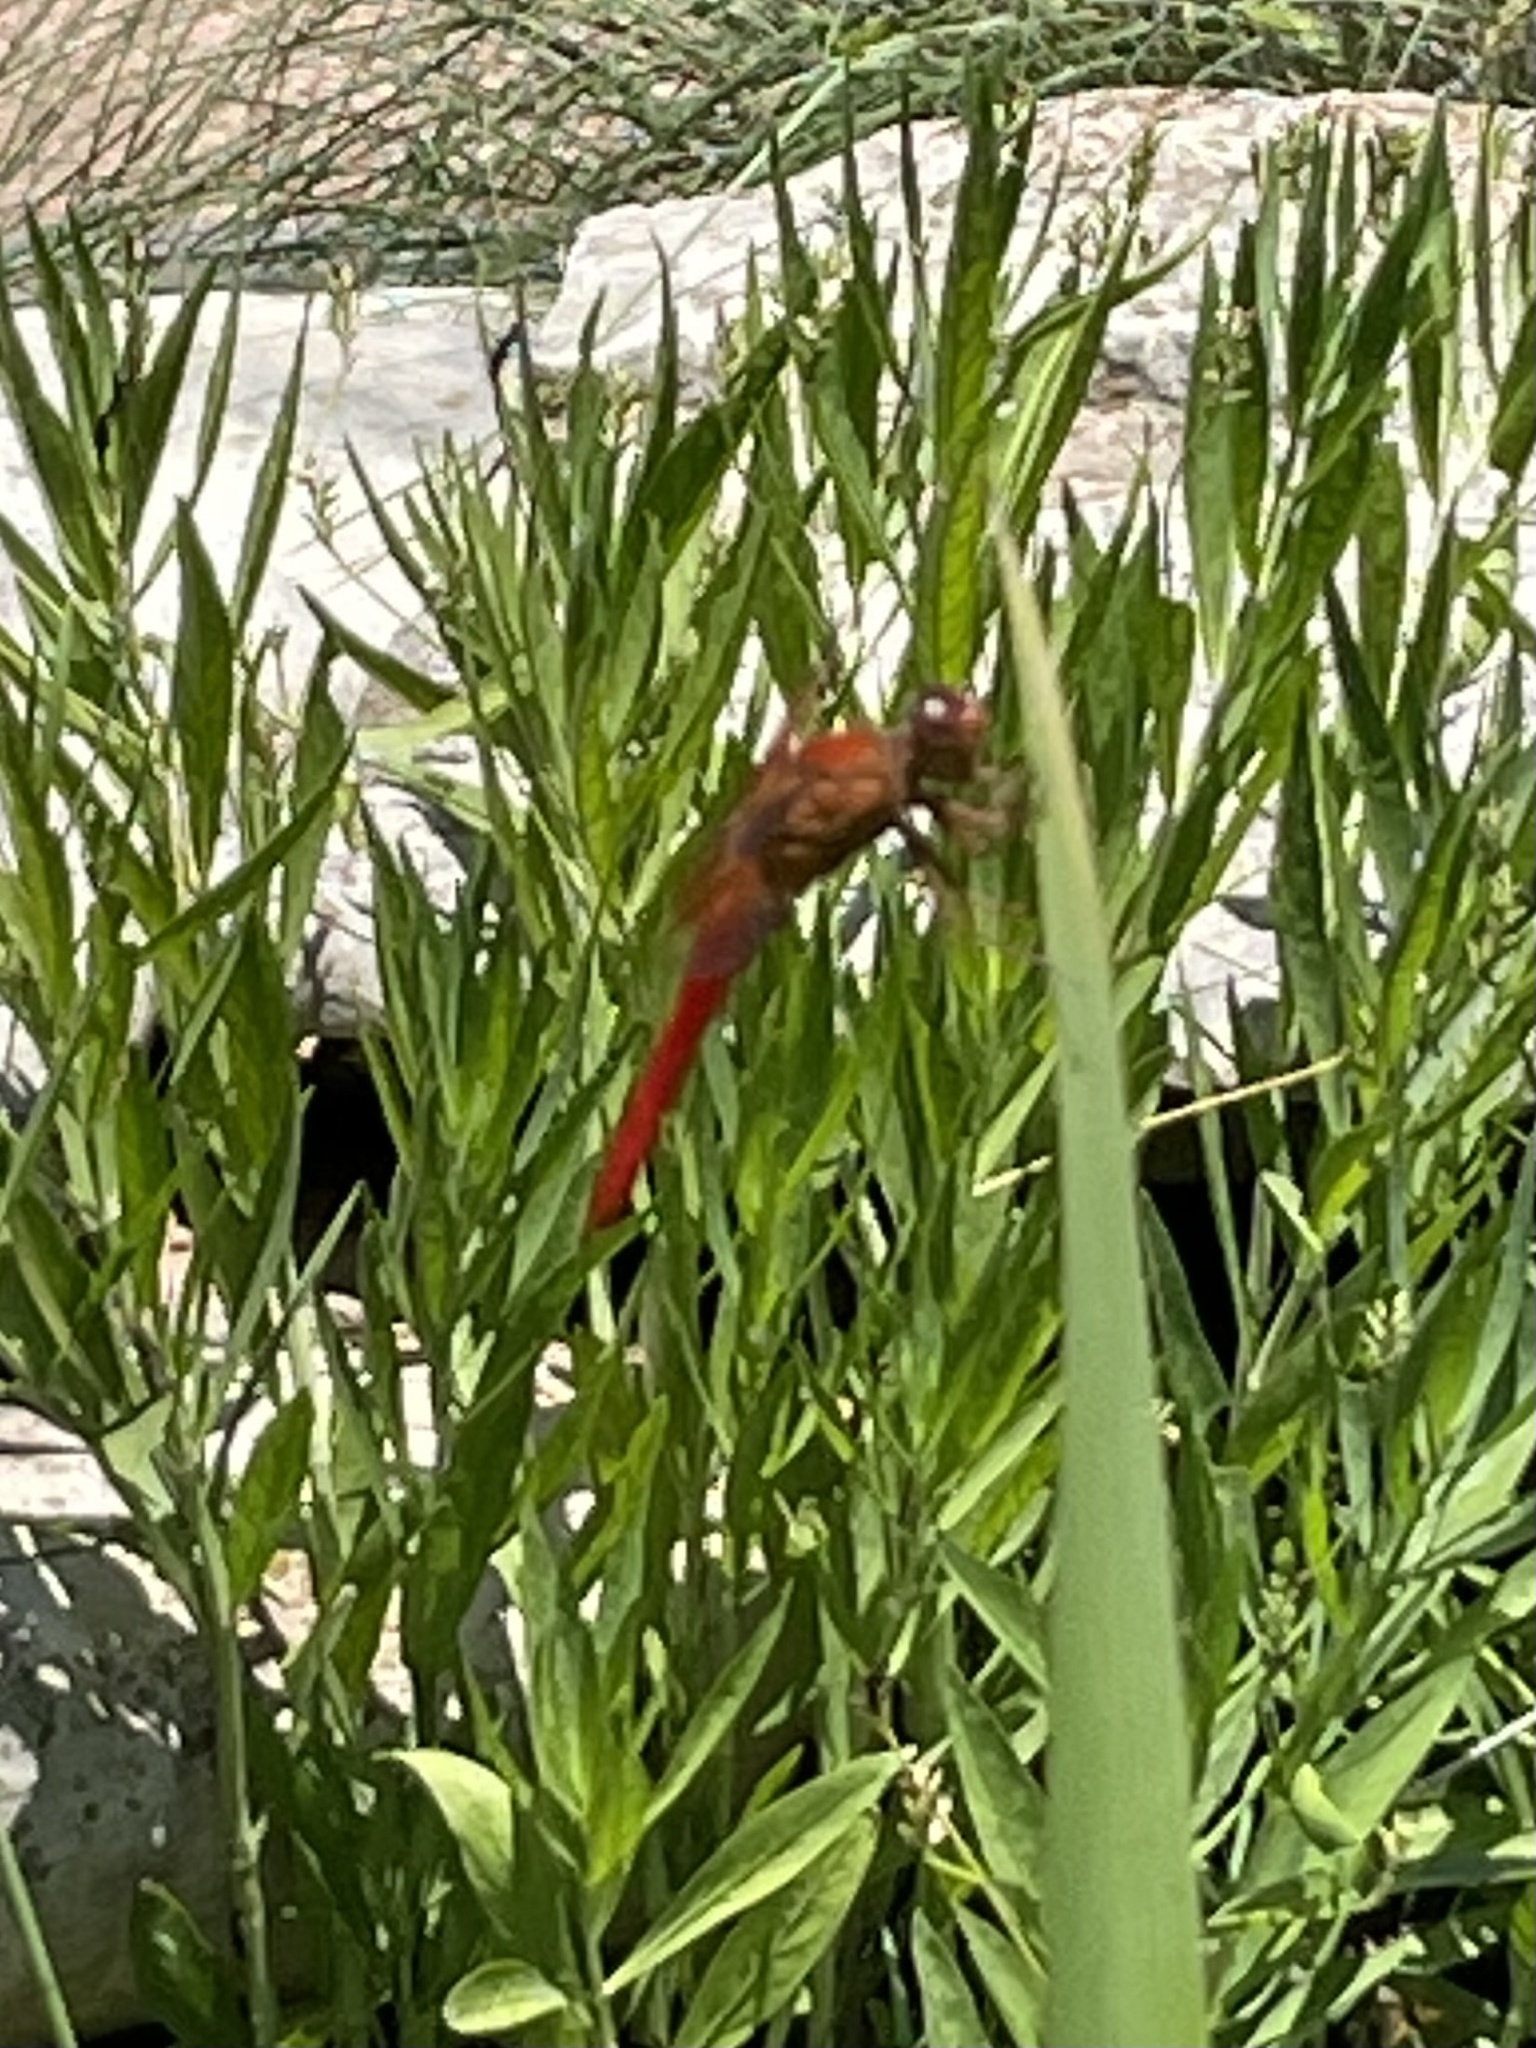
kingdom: Animalia
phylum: Arthropoda
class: Insecta
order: Odonata
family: Libellulidae
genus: Libellula
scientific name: Libellula croceipennis
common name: Neon skimmer
